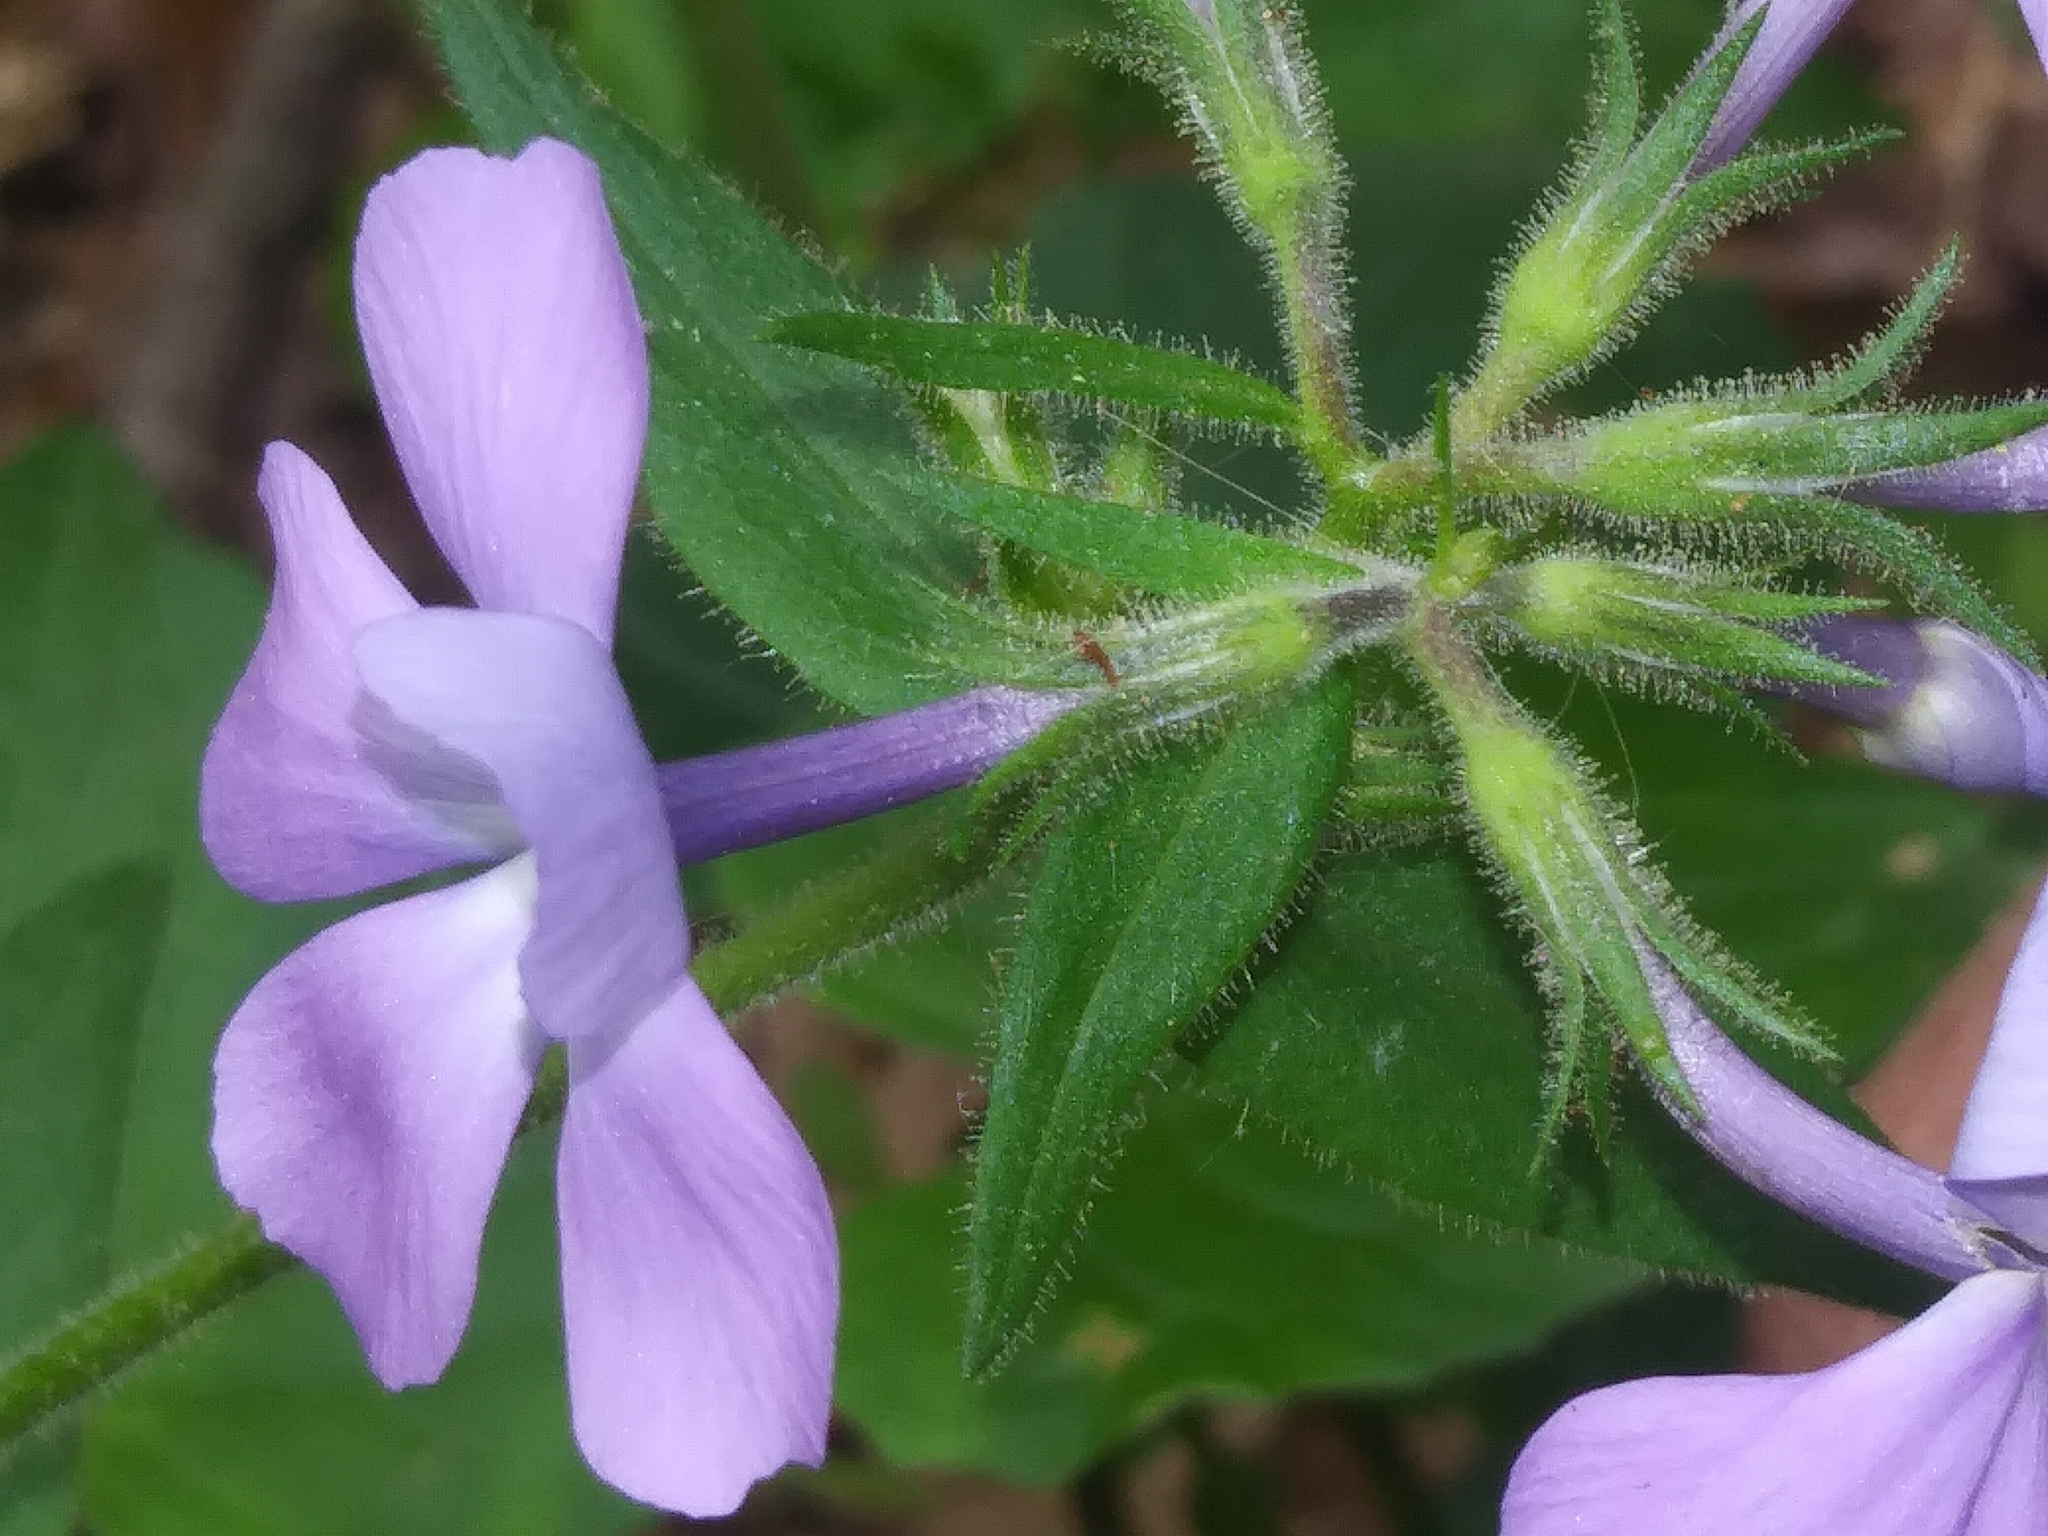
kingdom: Plantae
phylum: Tracheophyta
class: Magnoliopsida
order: Ericales
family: Polemoniaceae
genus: Phlox
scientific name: Phlox divaricata
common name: Blue phlox
